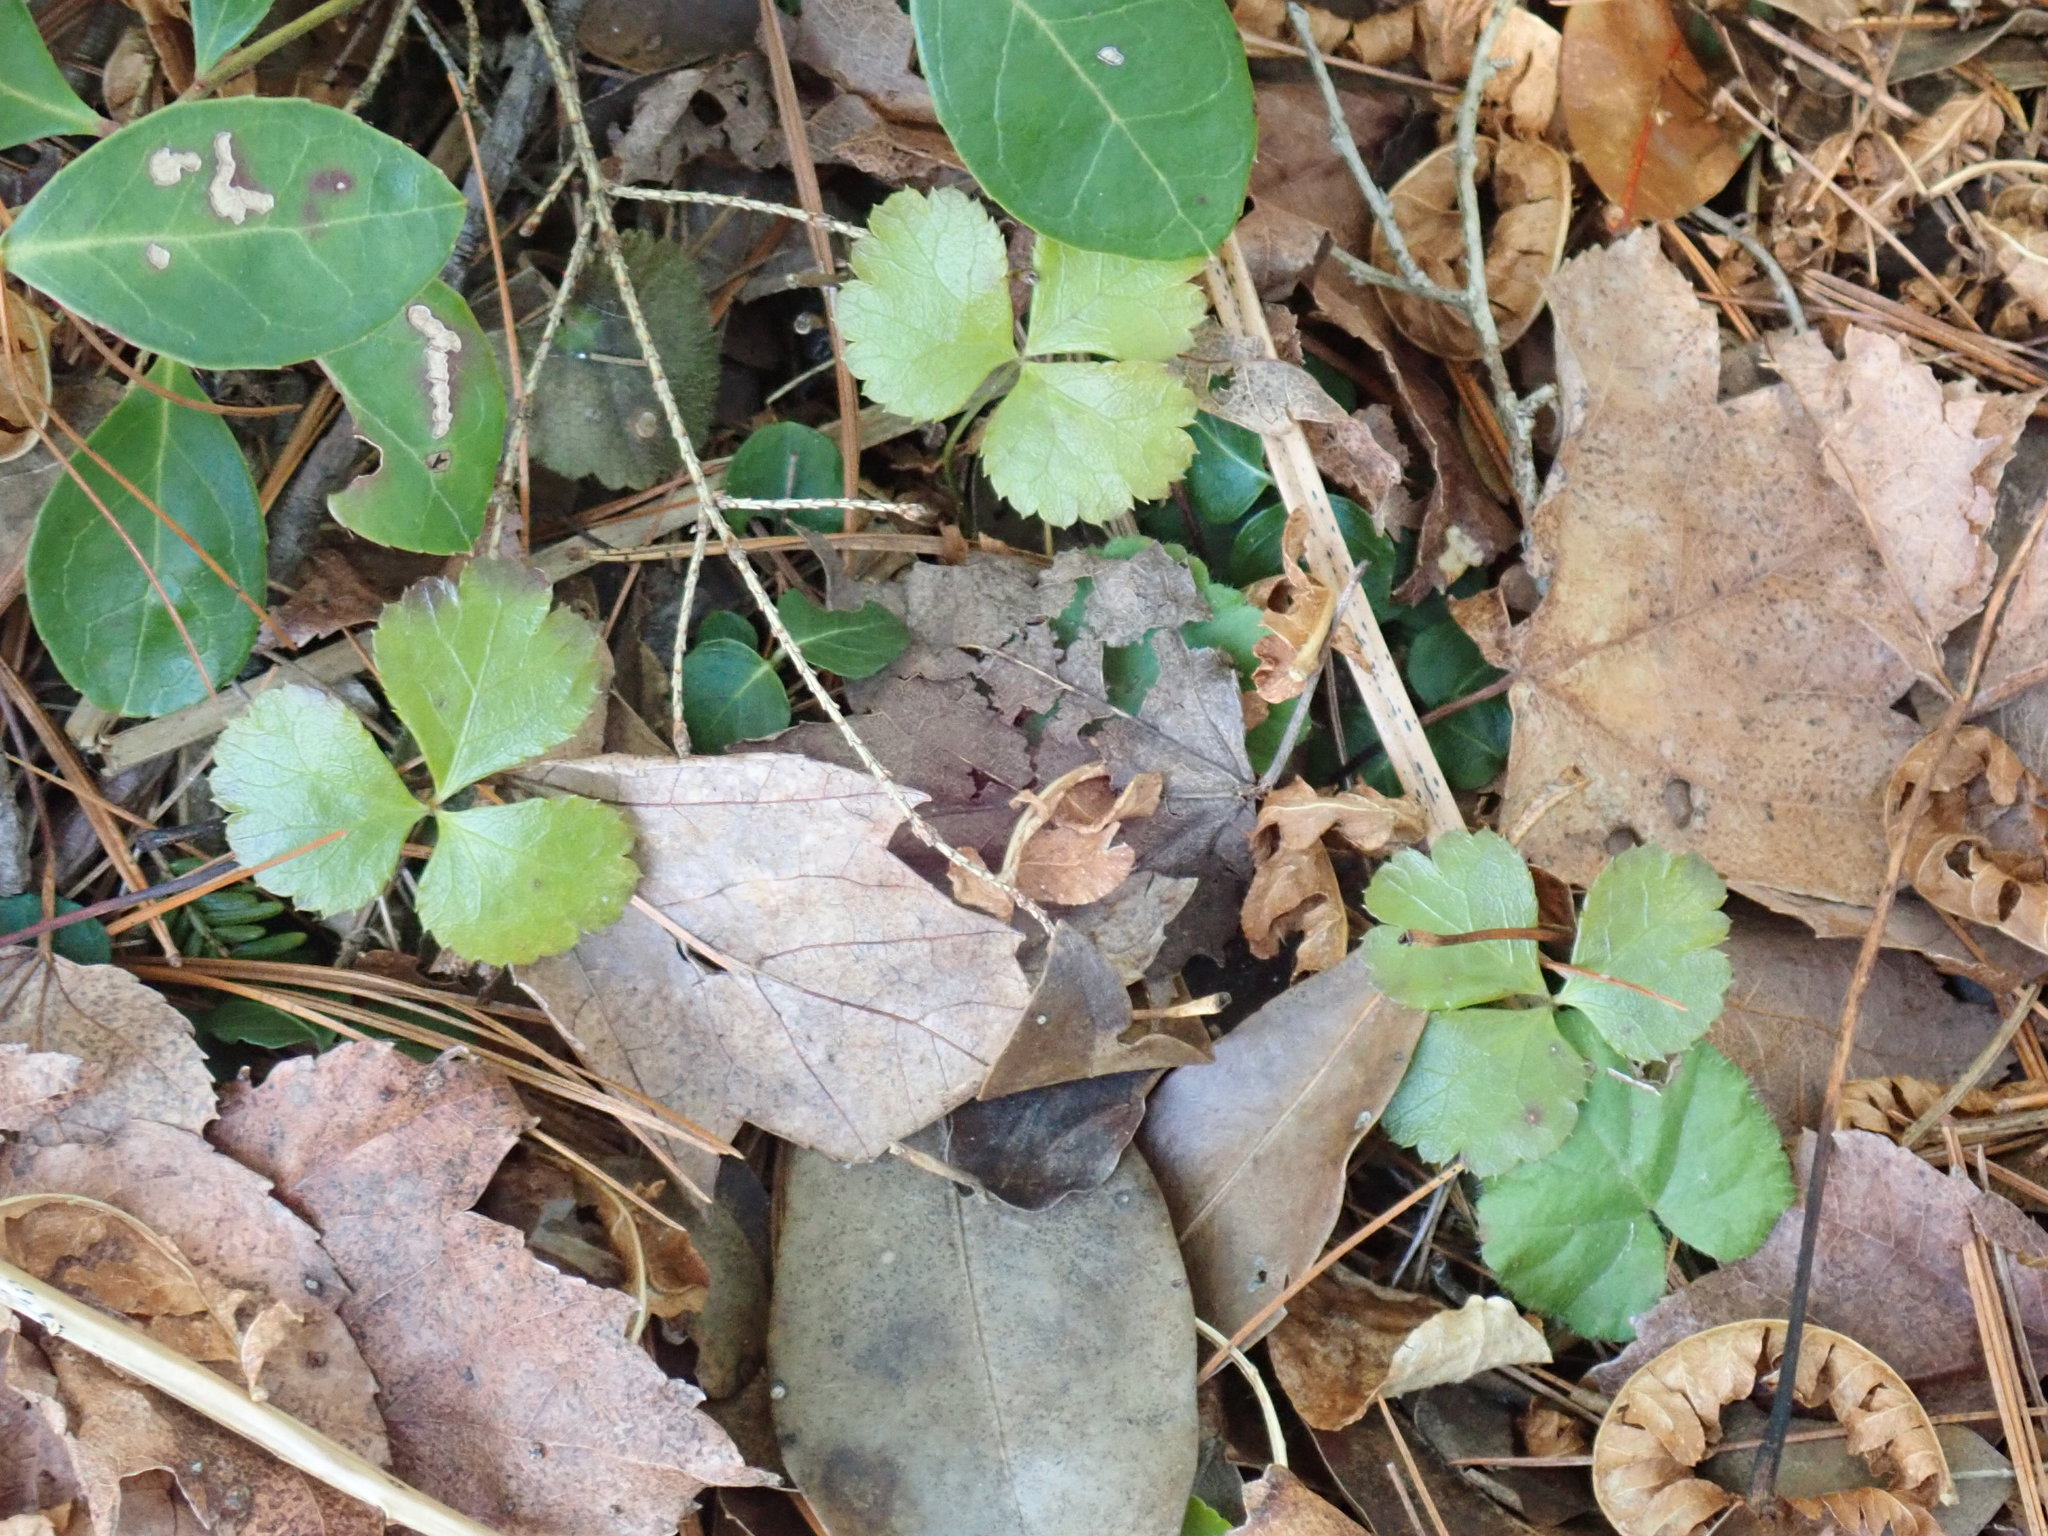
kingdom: Plantae
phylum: Tracheophyta
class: Magnoliopsida
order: Ranunculales
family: Ranunculaceae
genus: Coptis
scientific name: Coptis trifolia
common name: Canker-root
